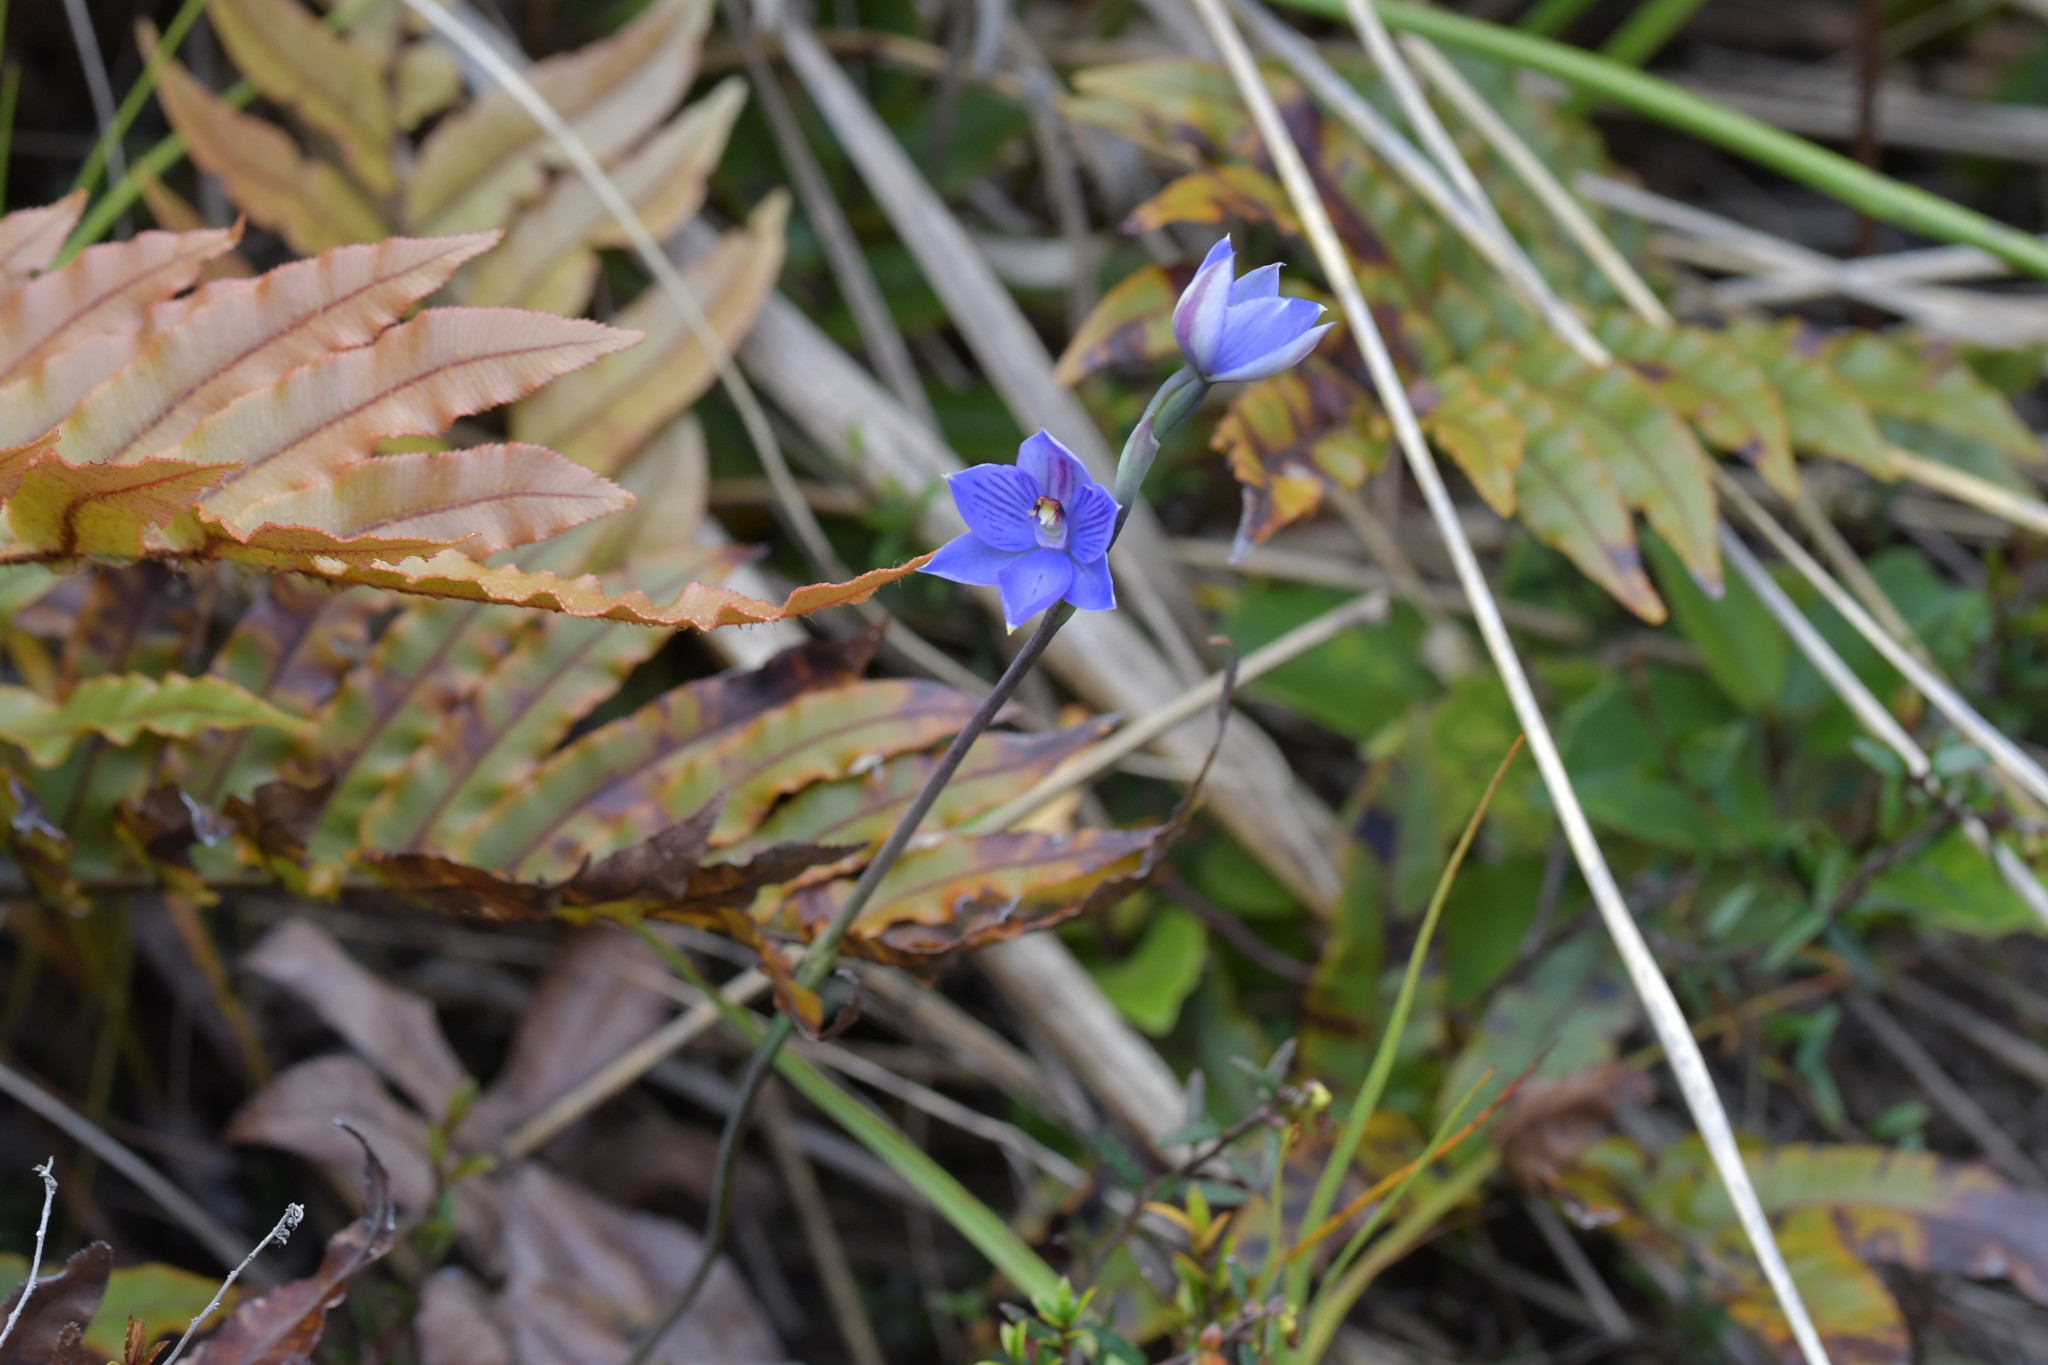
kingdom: Plantae
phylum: Tracheophyta
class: Liliopsida
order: Asparagales
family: Orchidaceae
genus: Thelymitra
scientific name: Thelymitra pulchella
